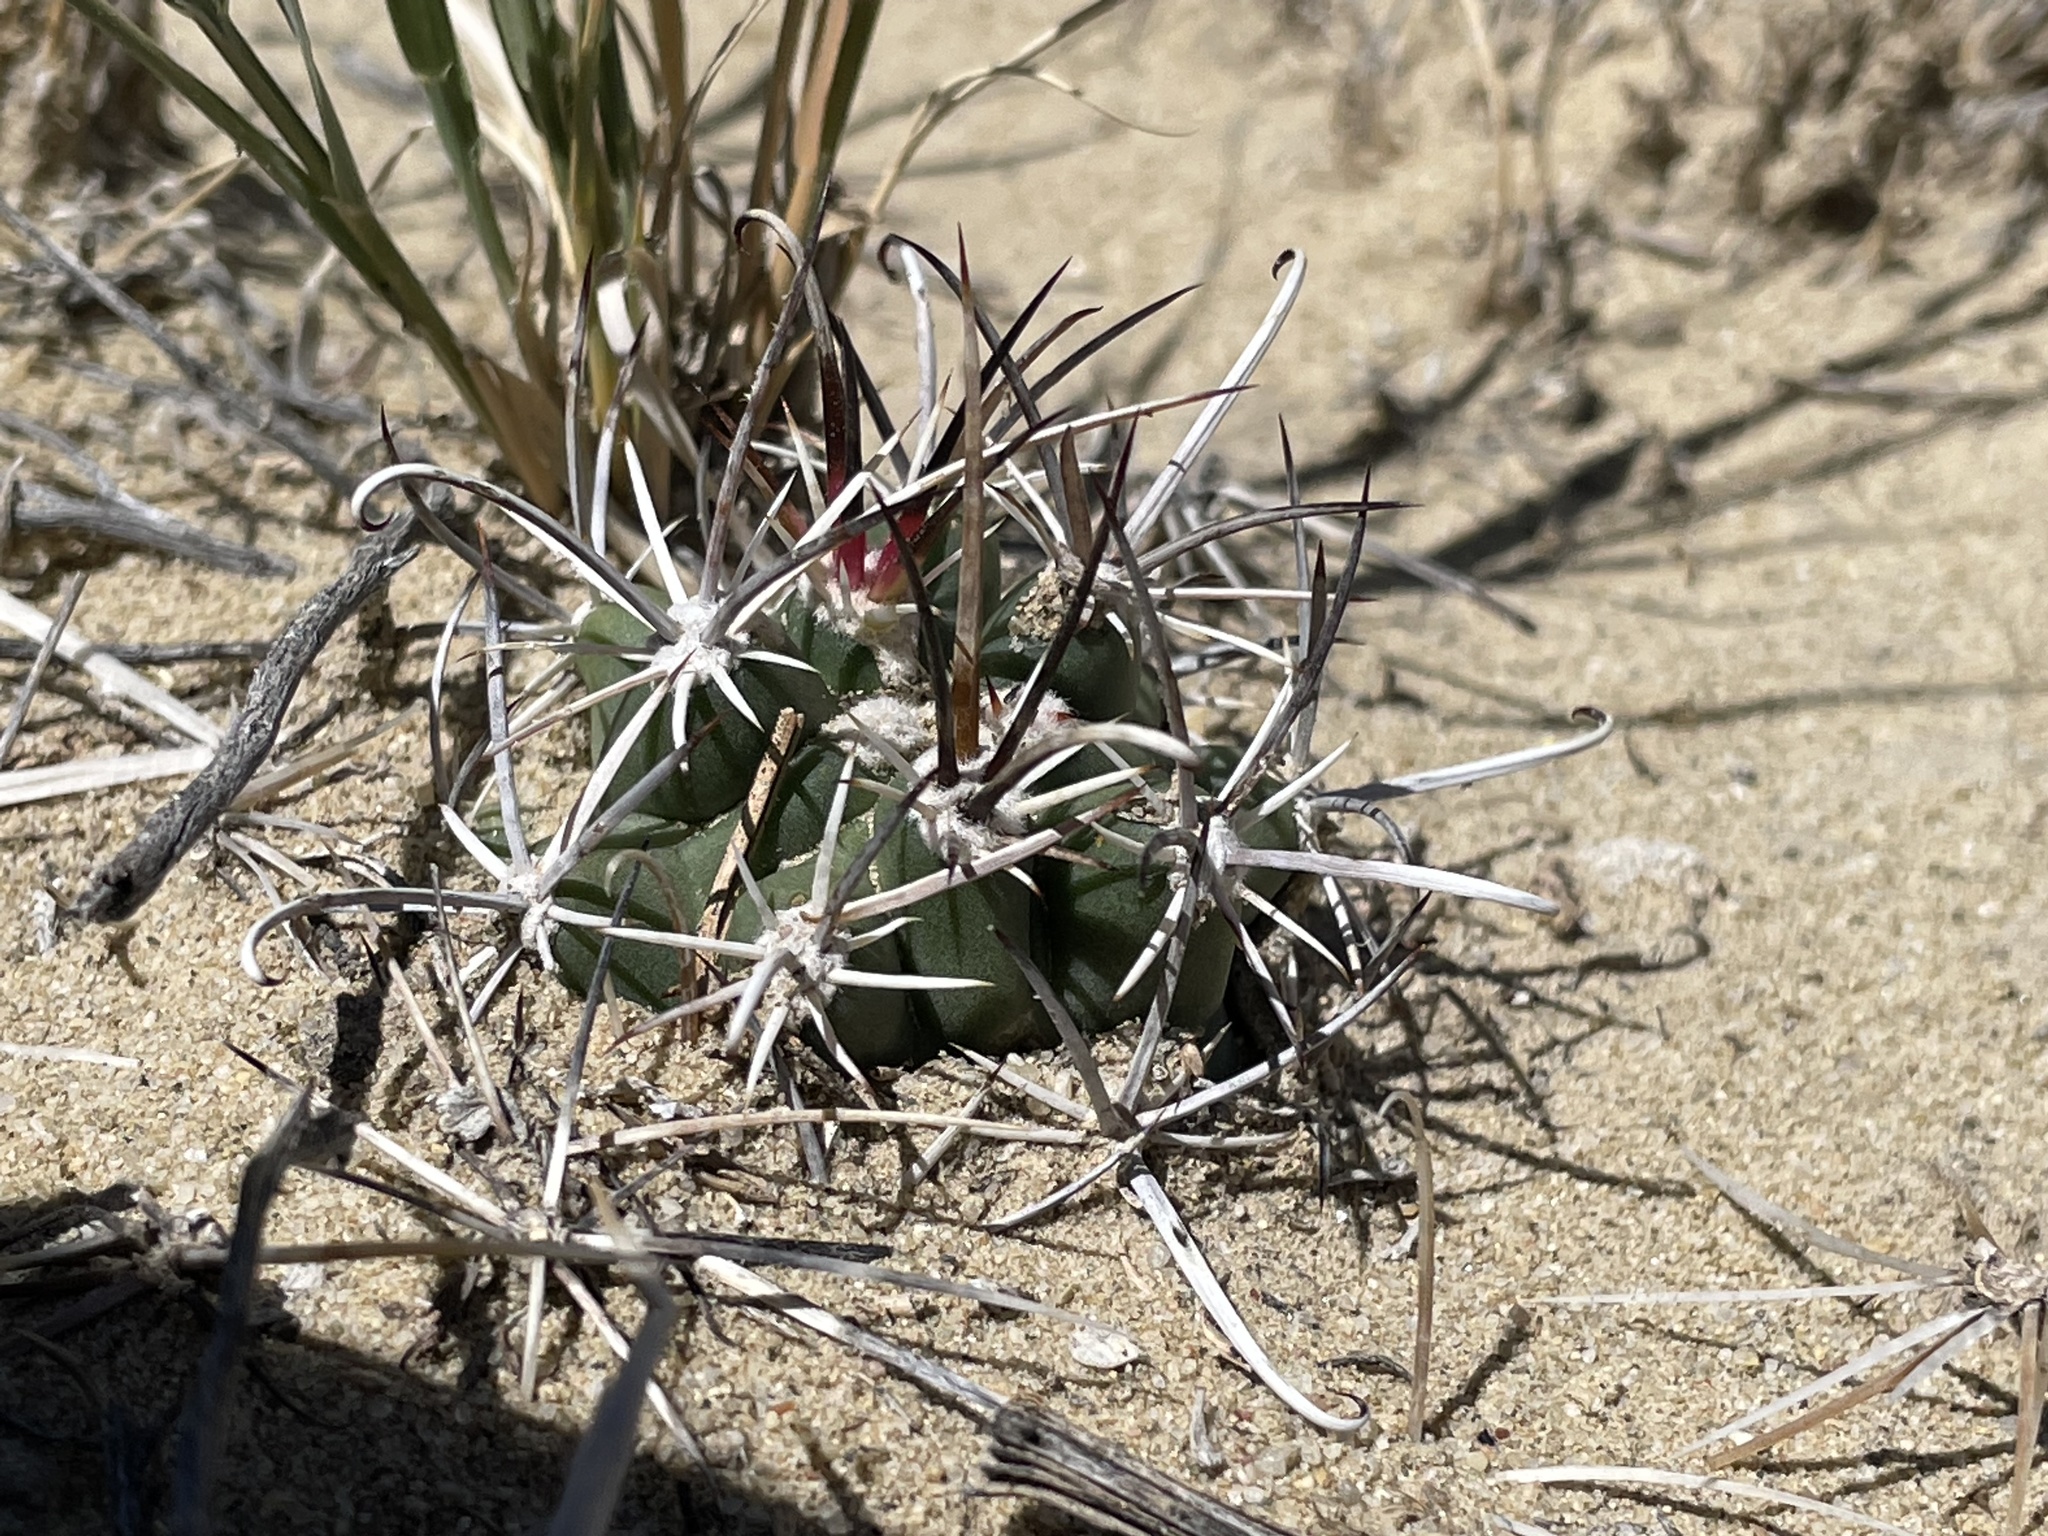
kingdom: Plantae
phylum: Tracheophyta
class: Magnoliopsida
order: Caryophyllales
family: Cactaceae
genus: Sclerocactus
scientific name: Sclerocactus cloverae
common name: Clover's eagle-claw cactus
